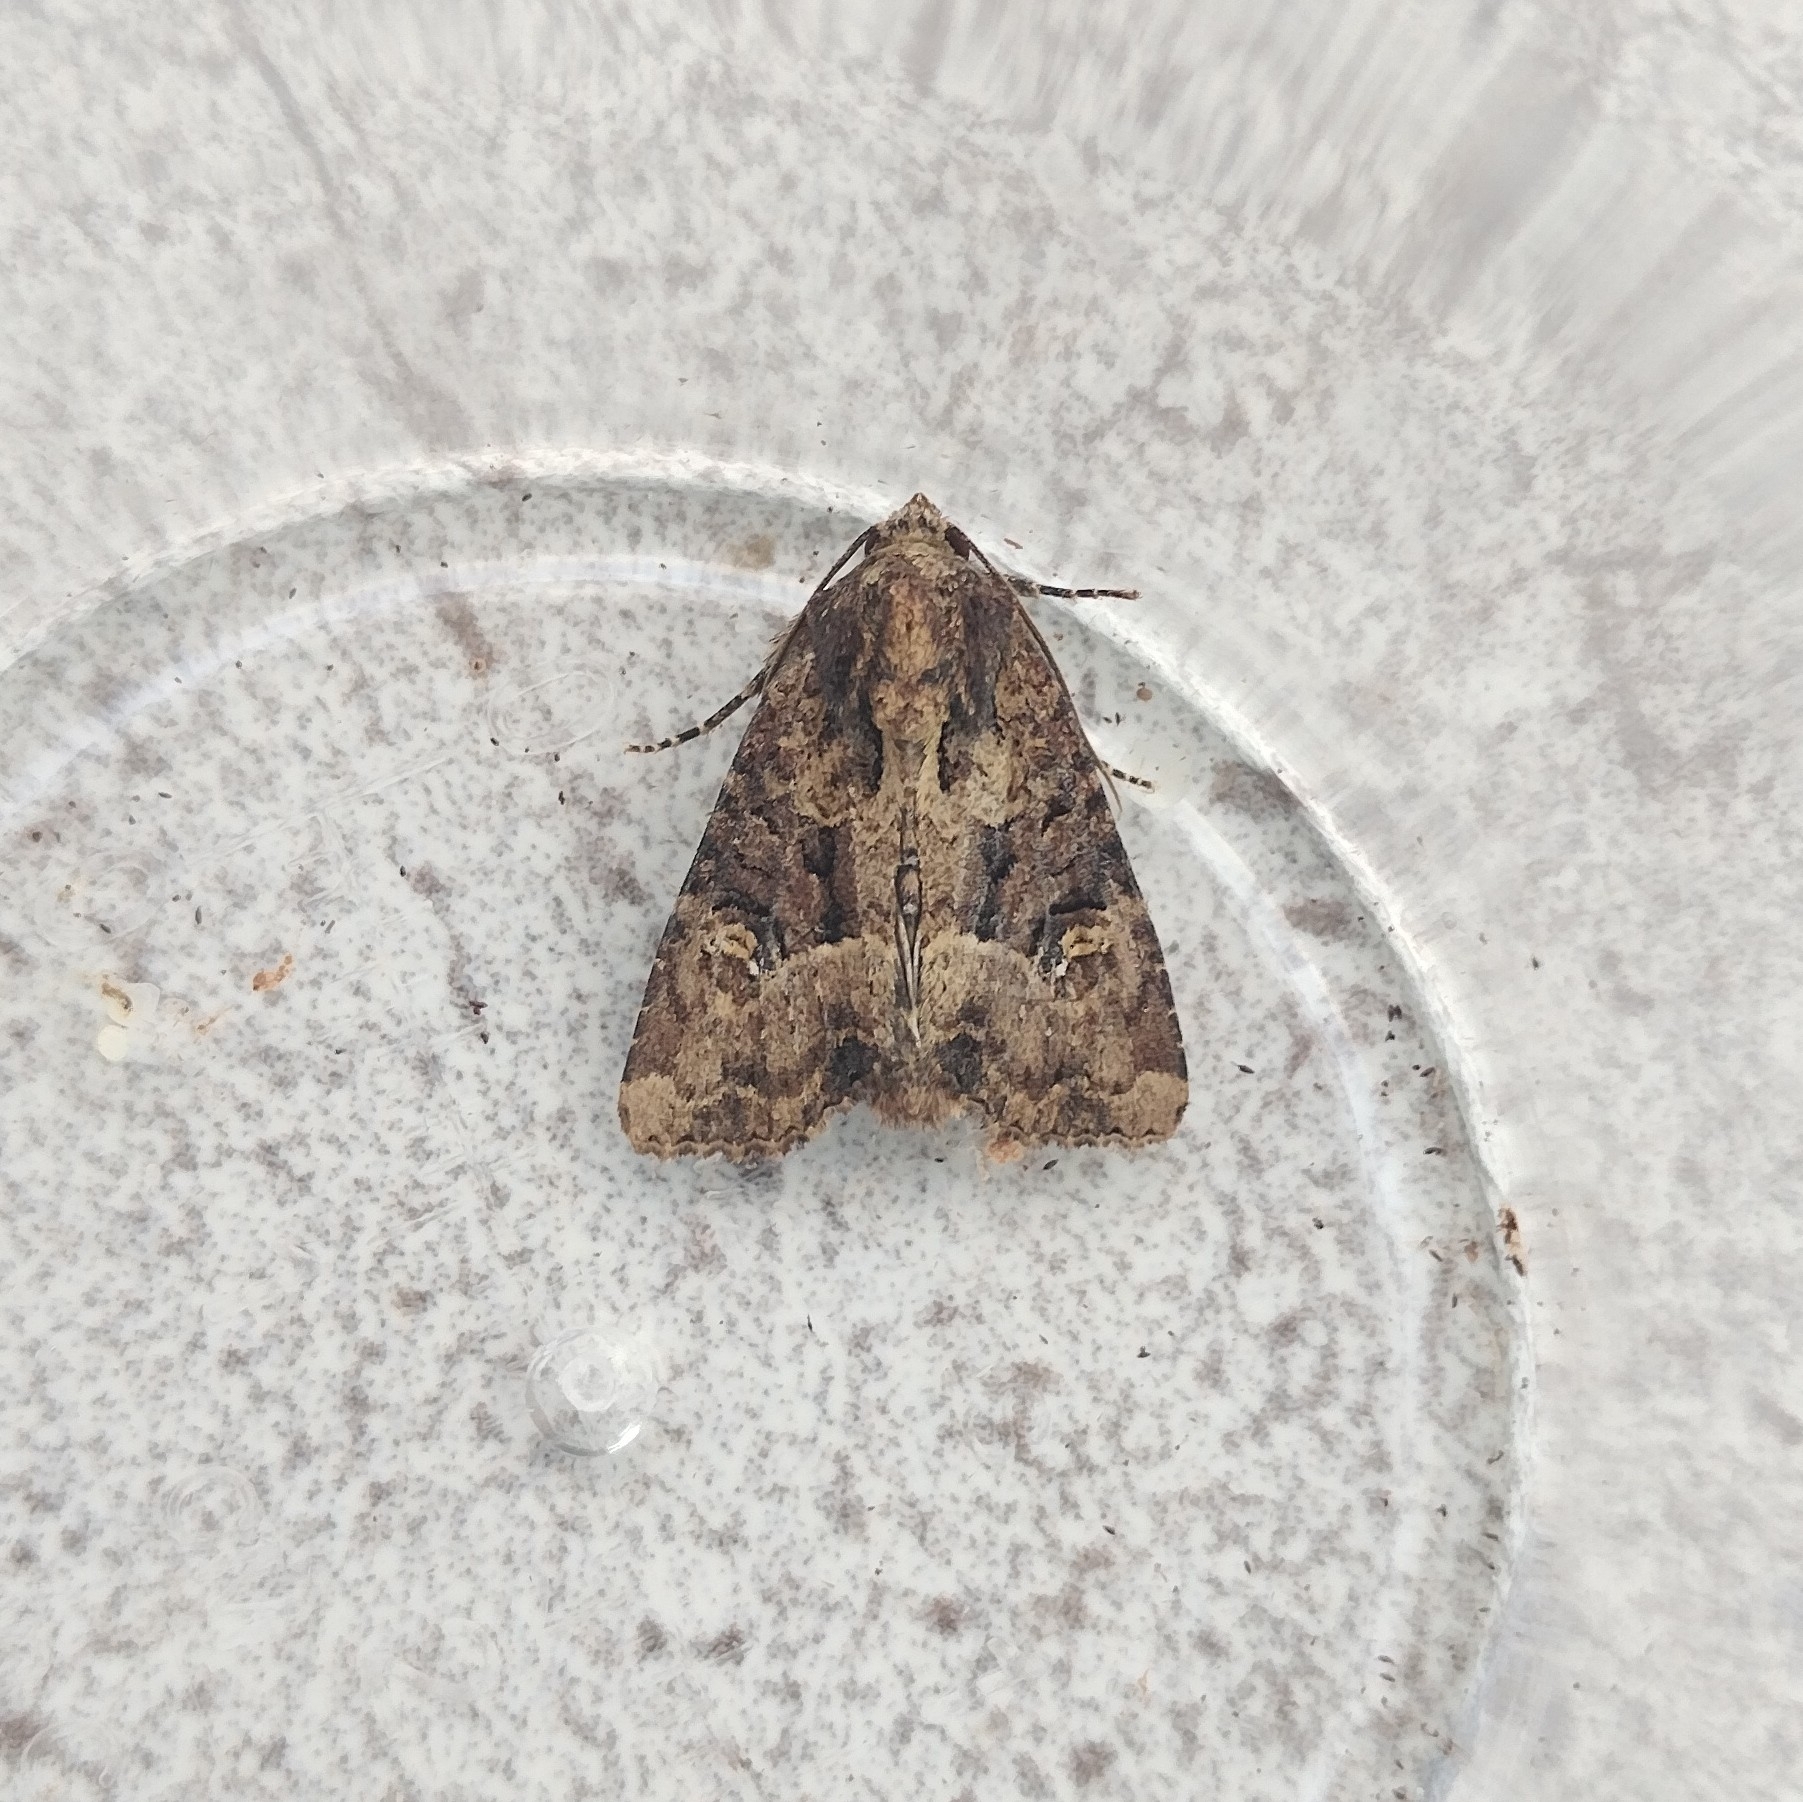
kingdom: Animalia
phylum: Arthropoda
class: Insecta
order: Lepidoptera
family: Noctuidae
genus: Mesapamea
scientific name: Mesapamea
